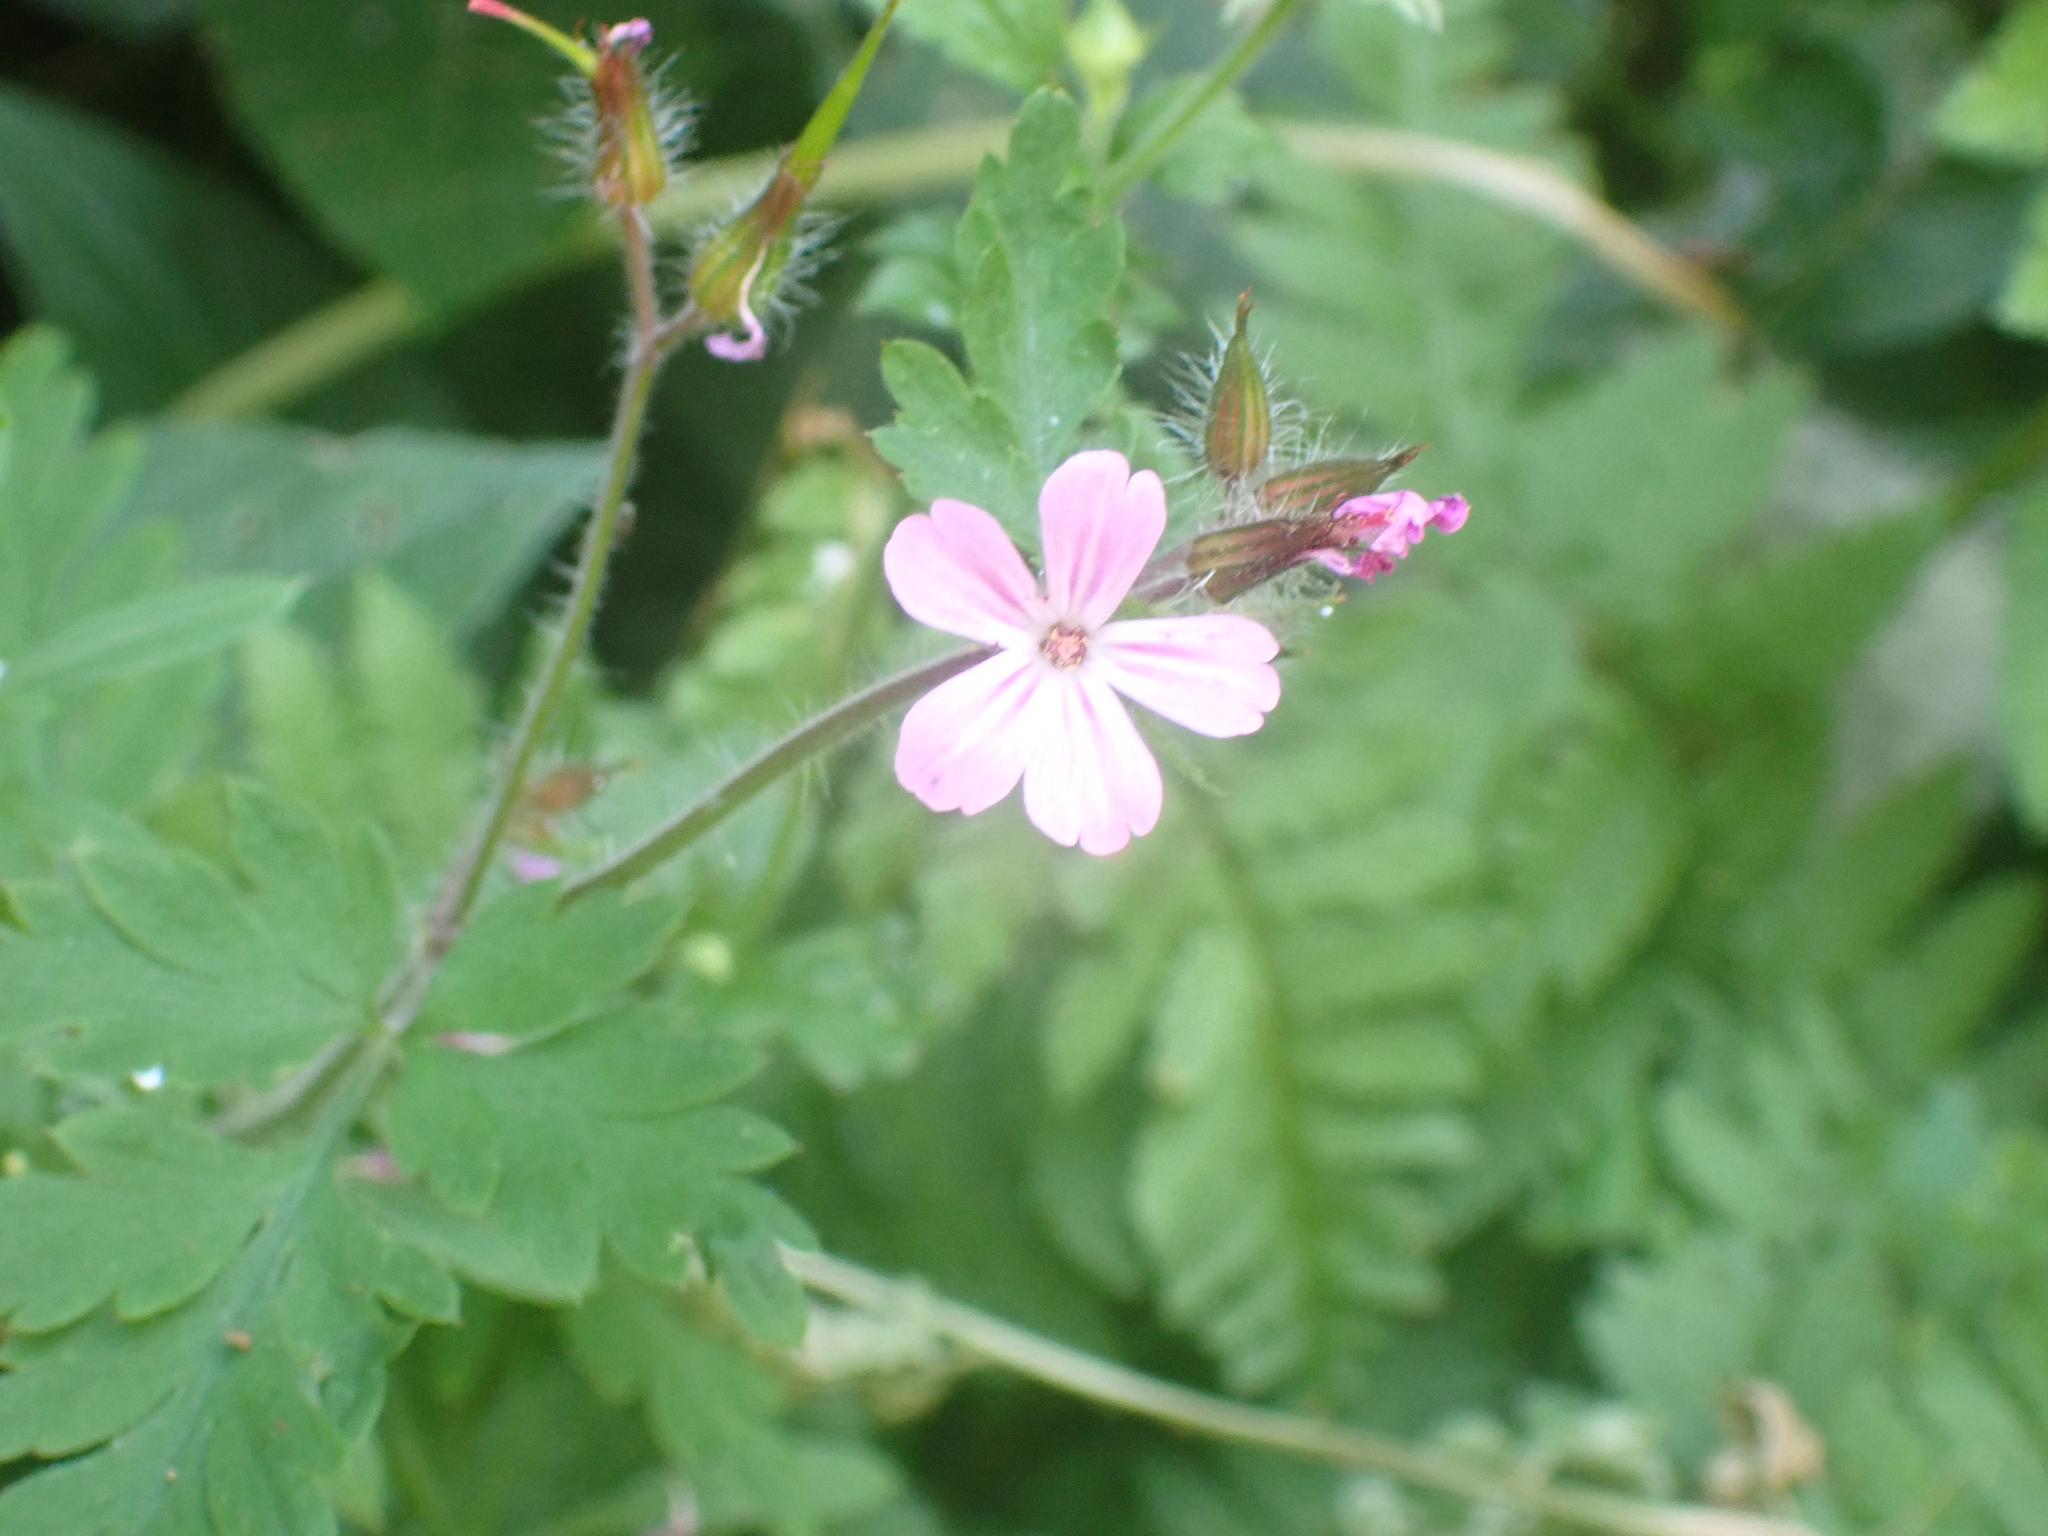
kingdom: Plantae
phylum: Tracheophyta
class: Magnoliopsida
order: Geraniales
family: Geraniaceae
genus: Geranium
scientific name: Geranium robertianum
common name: Herb-robert
